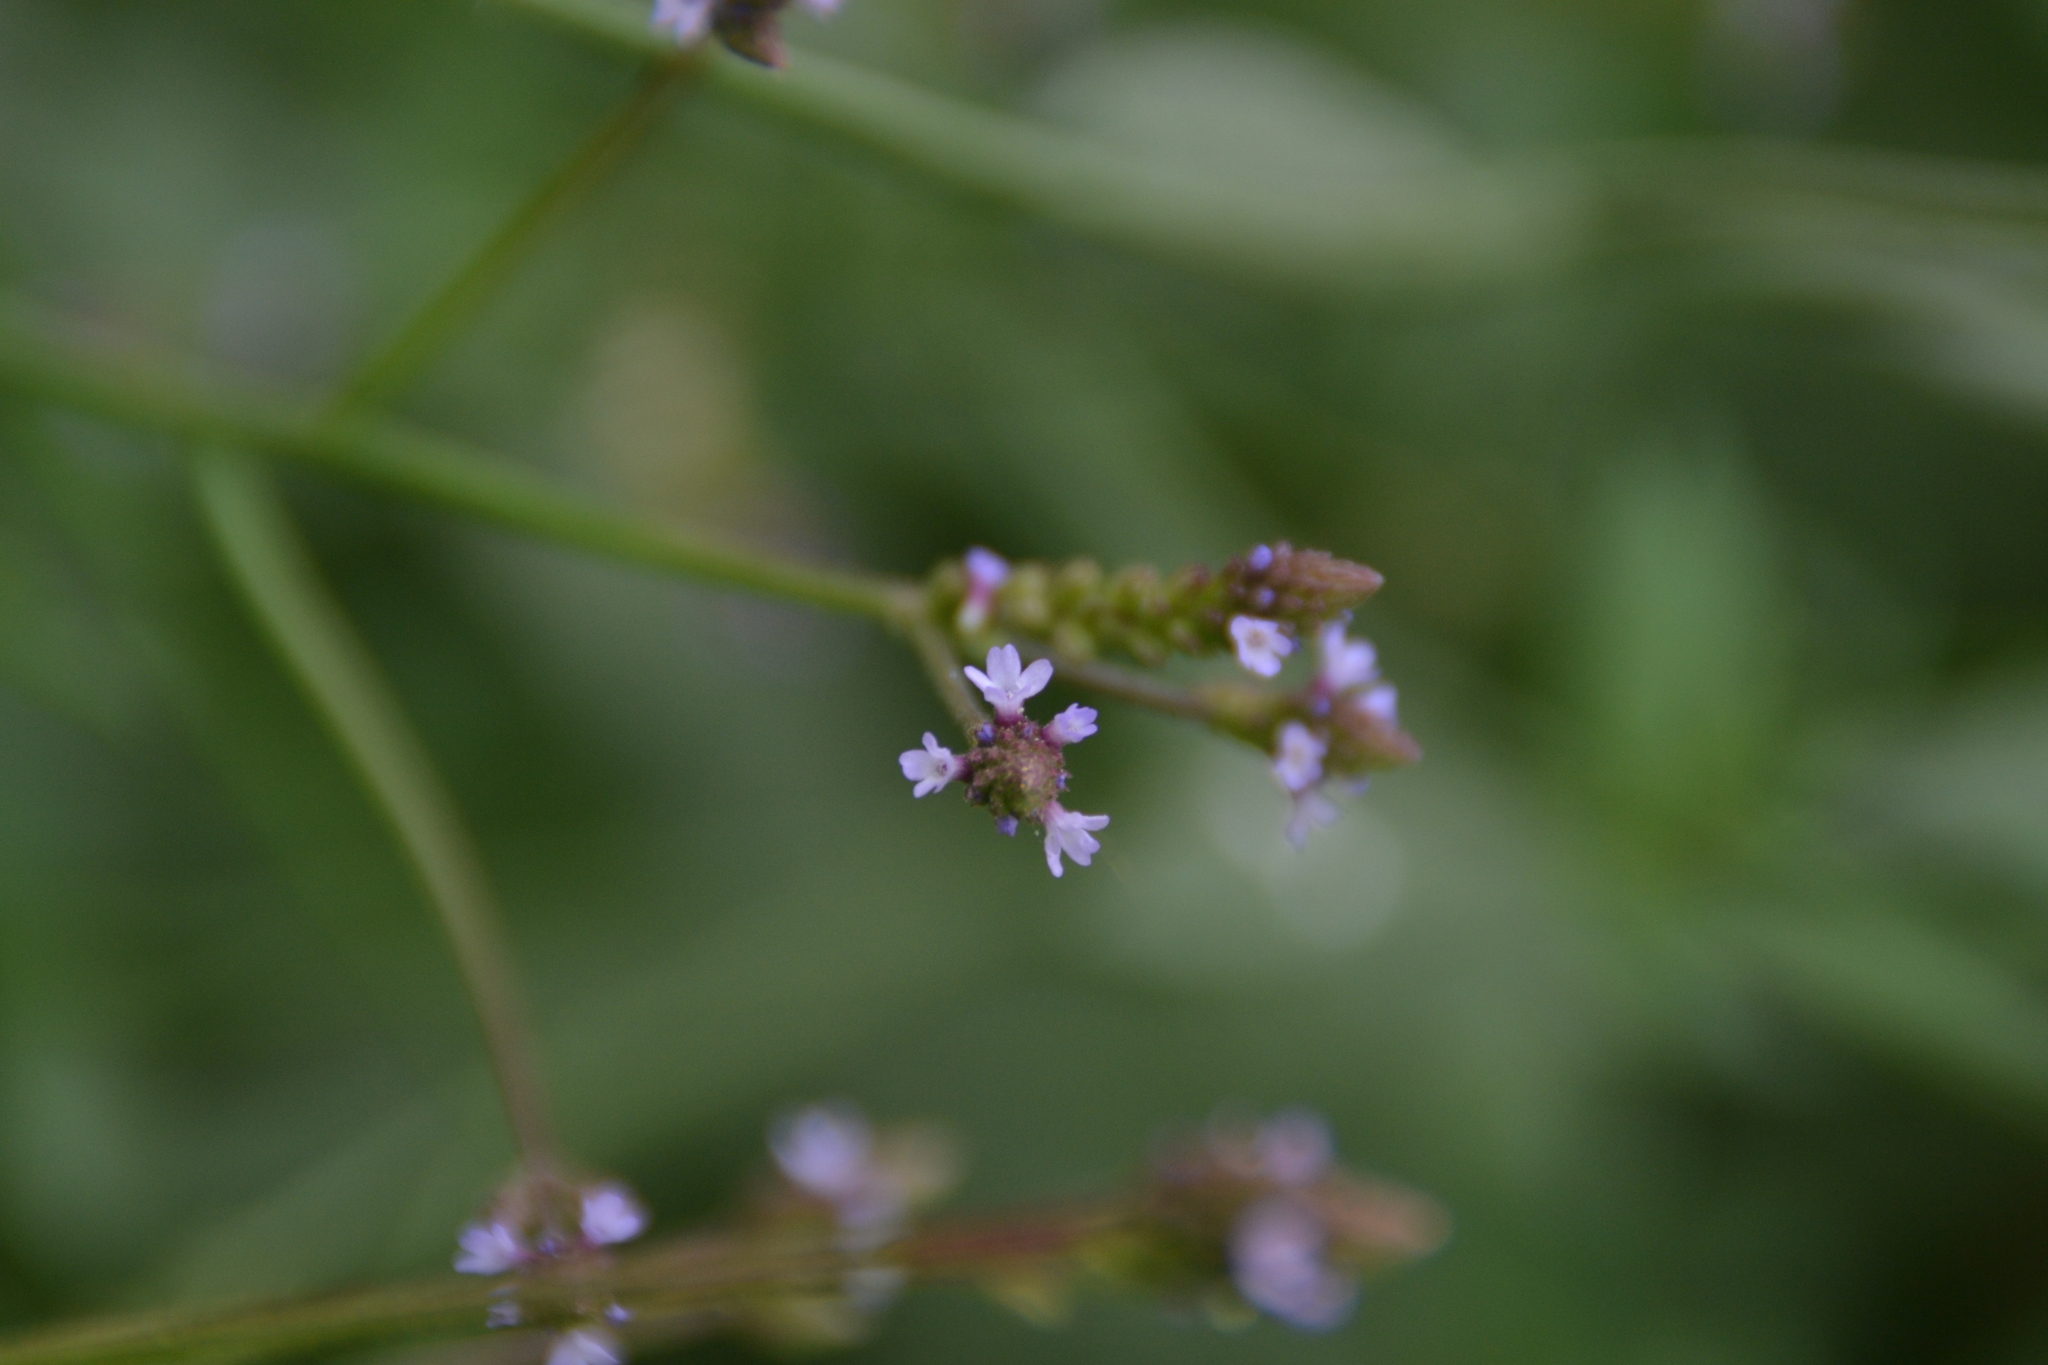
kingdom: Plantae
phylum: Tracheophyta
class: Magnoliopsida
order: Lamiales
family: Verbenaceae
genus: Verbena
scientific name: Verbena litoralis
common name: Seashore vervain
